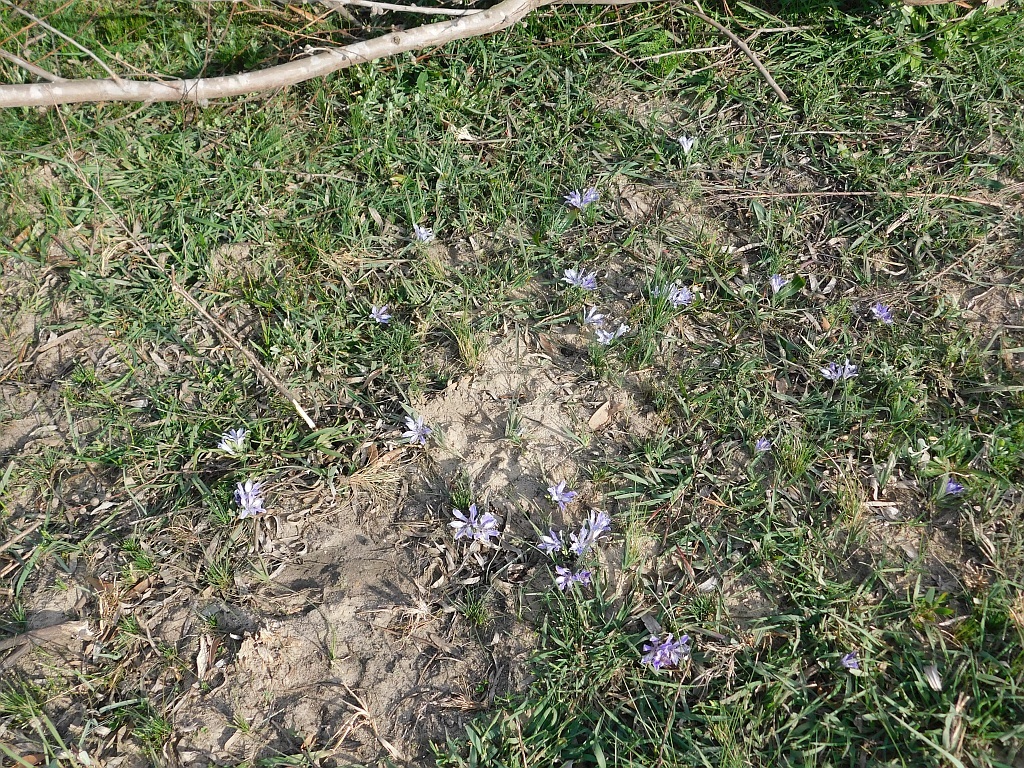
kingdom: Plantae
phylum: Tracheophyta
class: Liliopsida
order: Asparagales
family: Iridaceae
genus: Babiana
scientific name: Babiana ambigua
